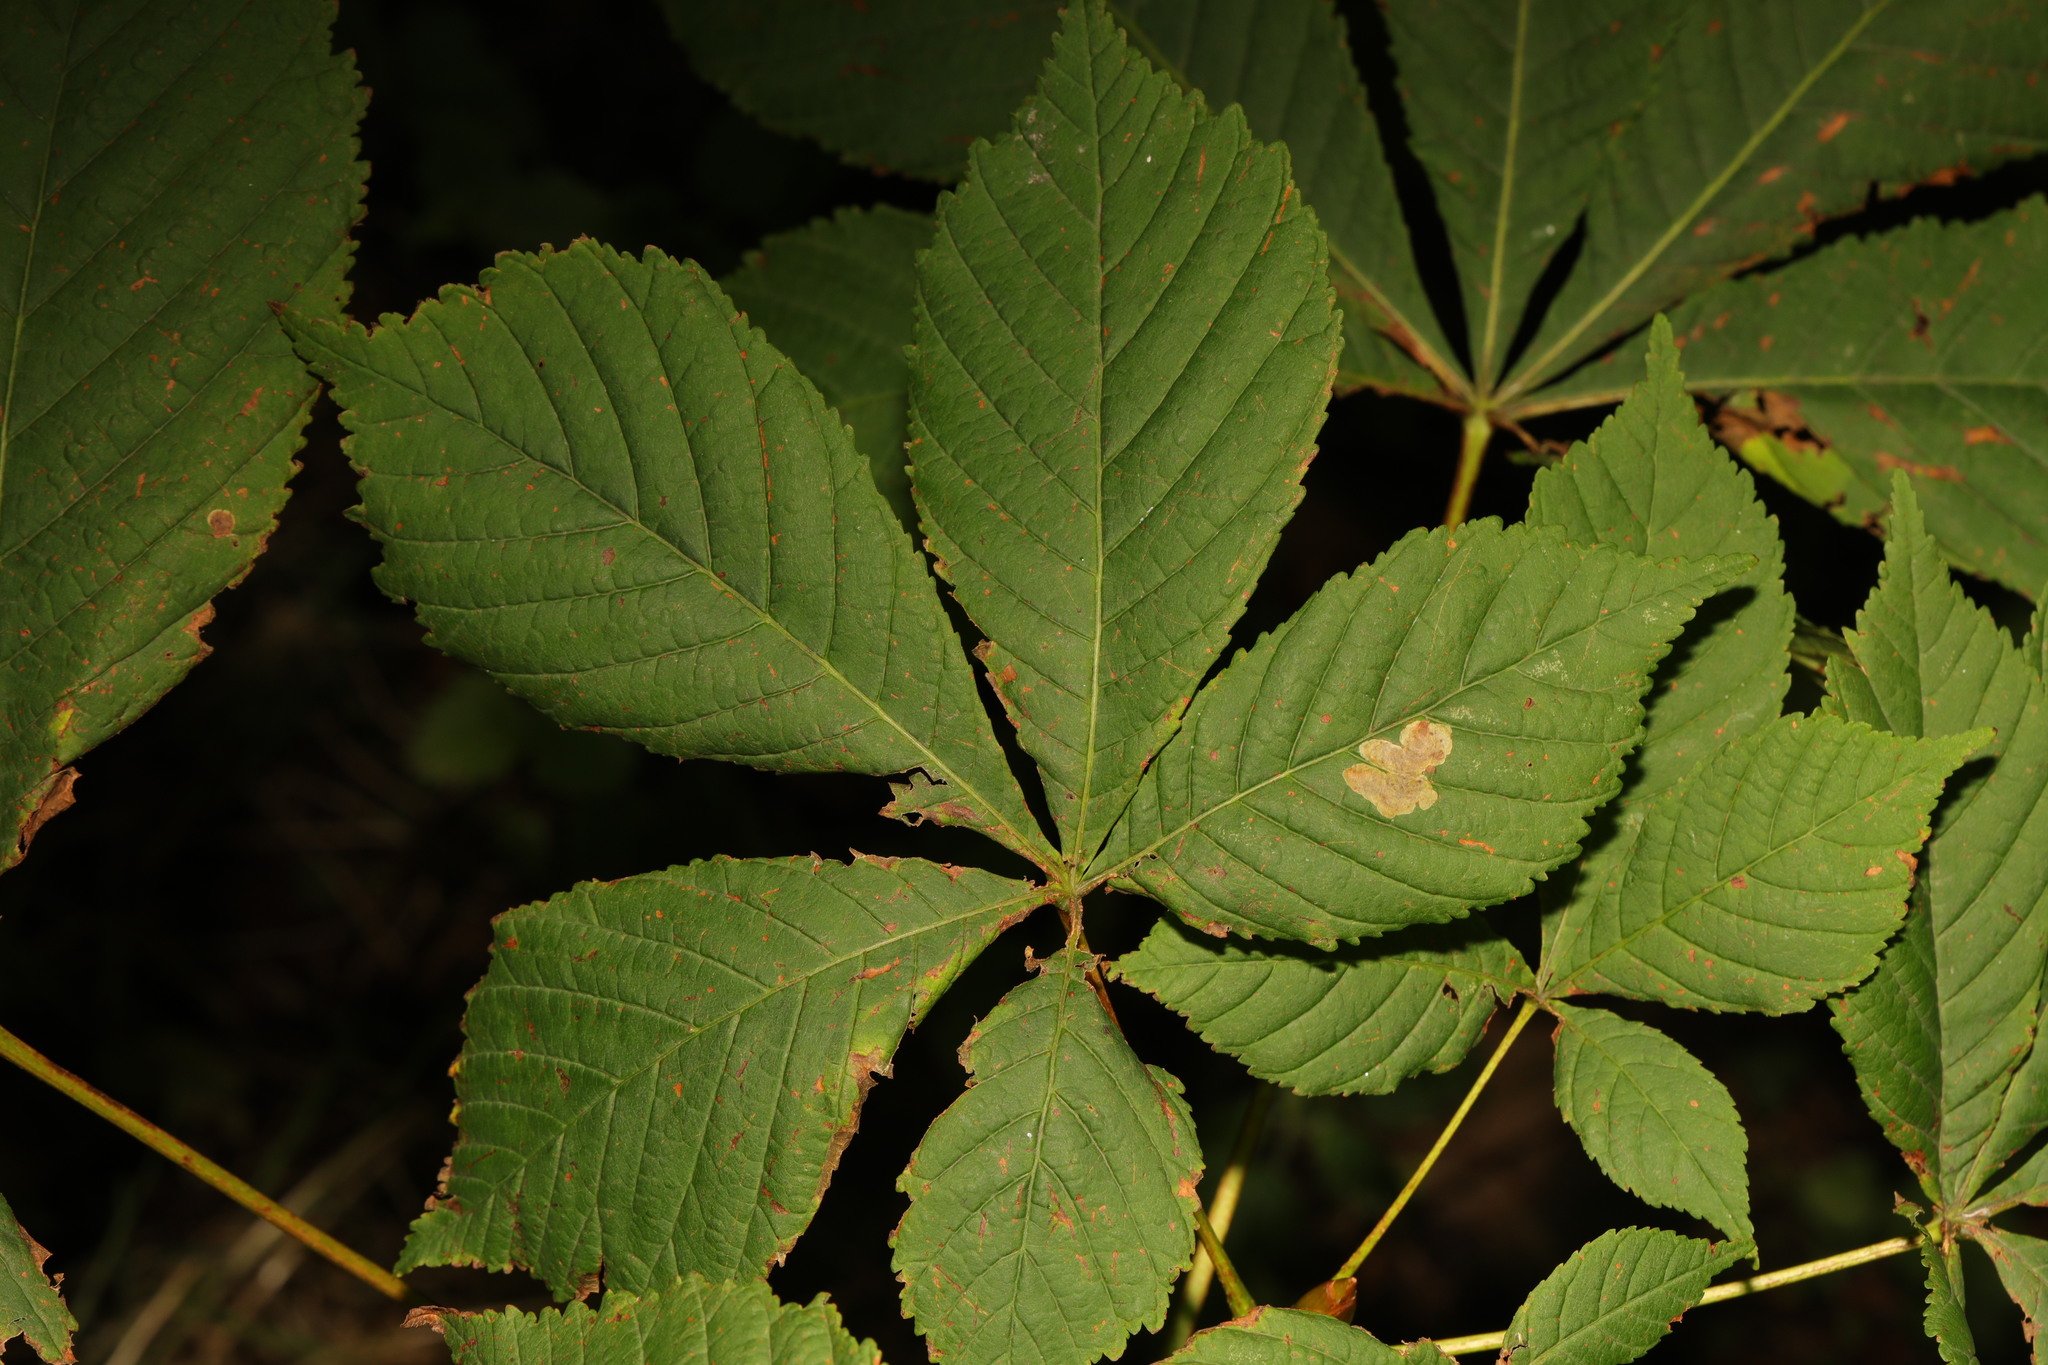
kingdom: Plantae
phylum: Tracheophyta
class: Magnoliopsida
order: Sapindales
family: Sapindaceae
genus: Aesculus
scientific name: Aesculus hippocastanum
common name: Horse-chestnut
